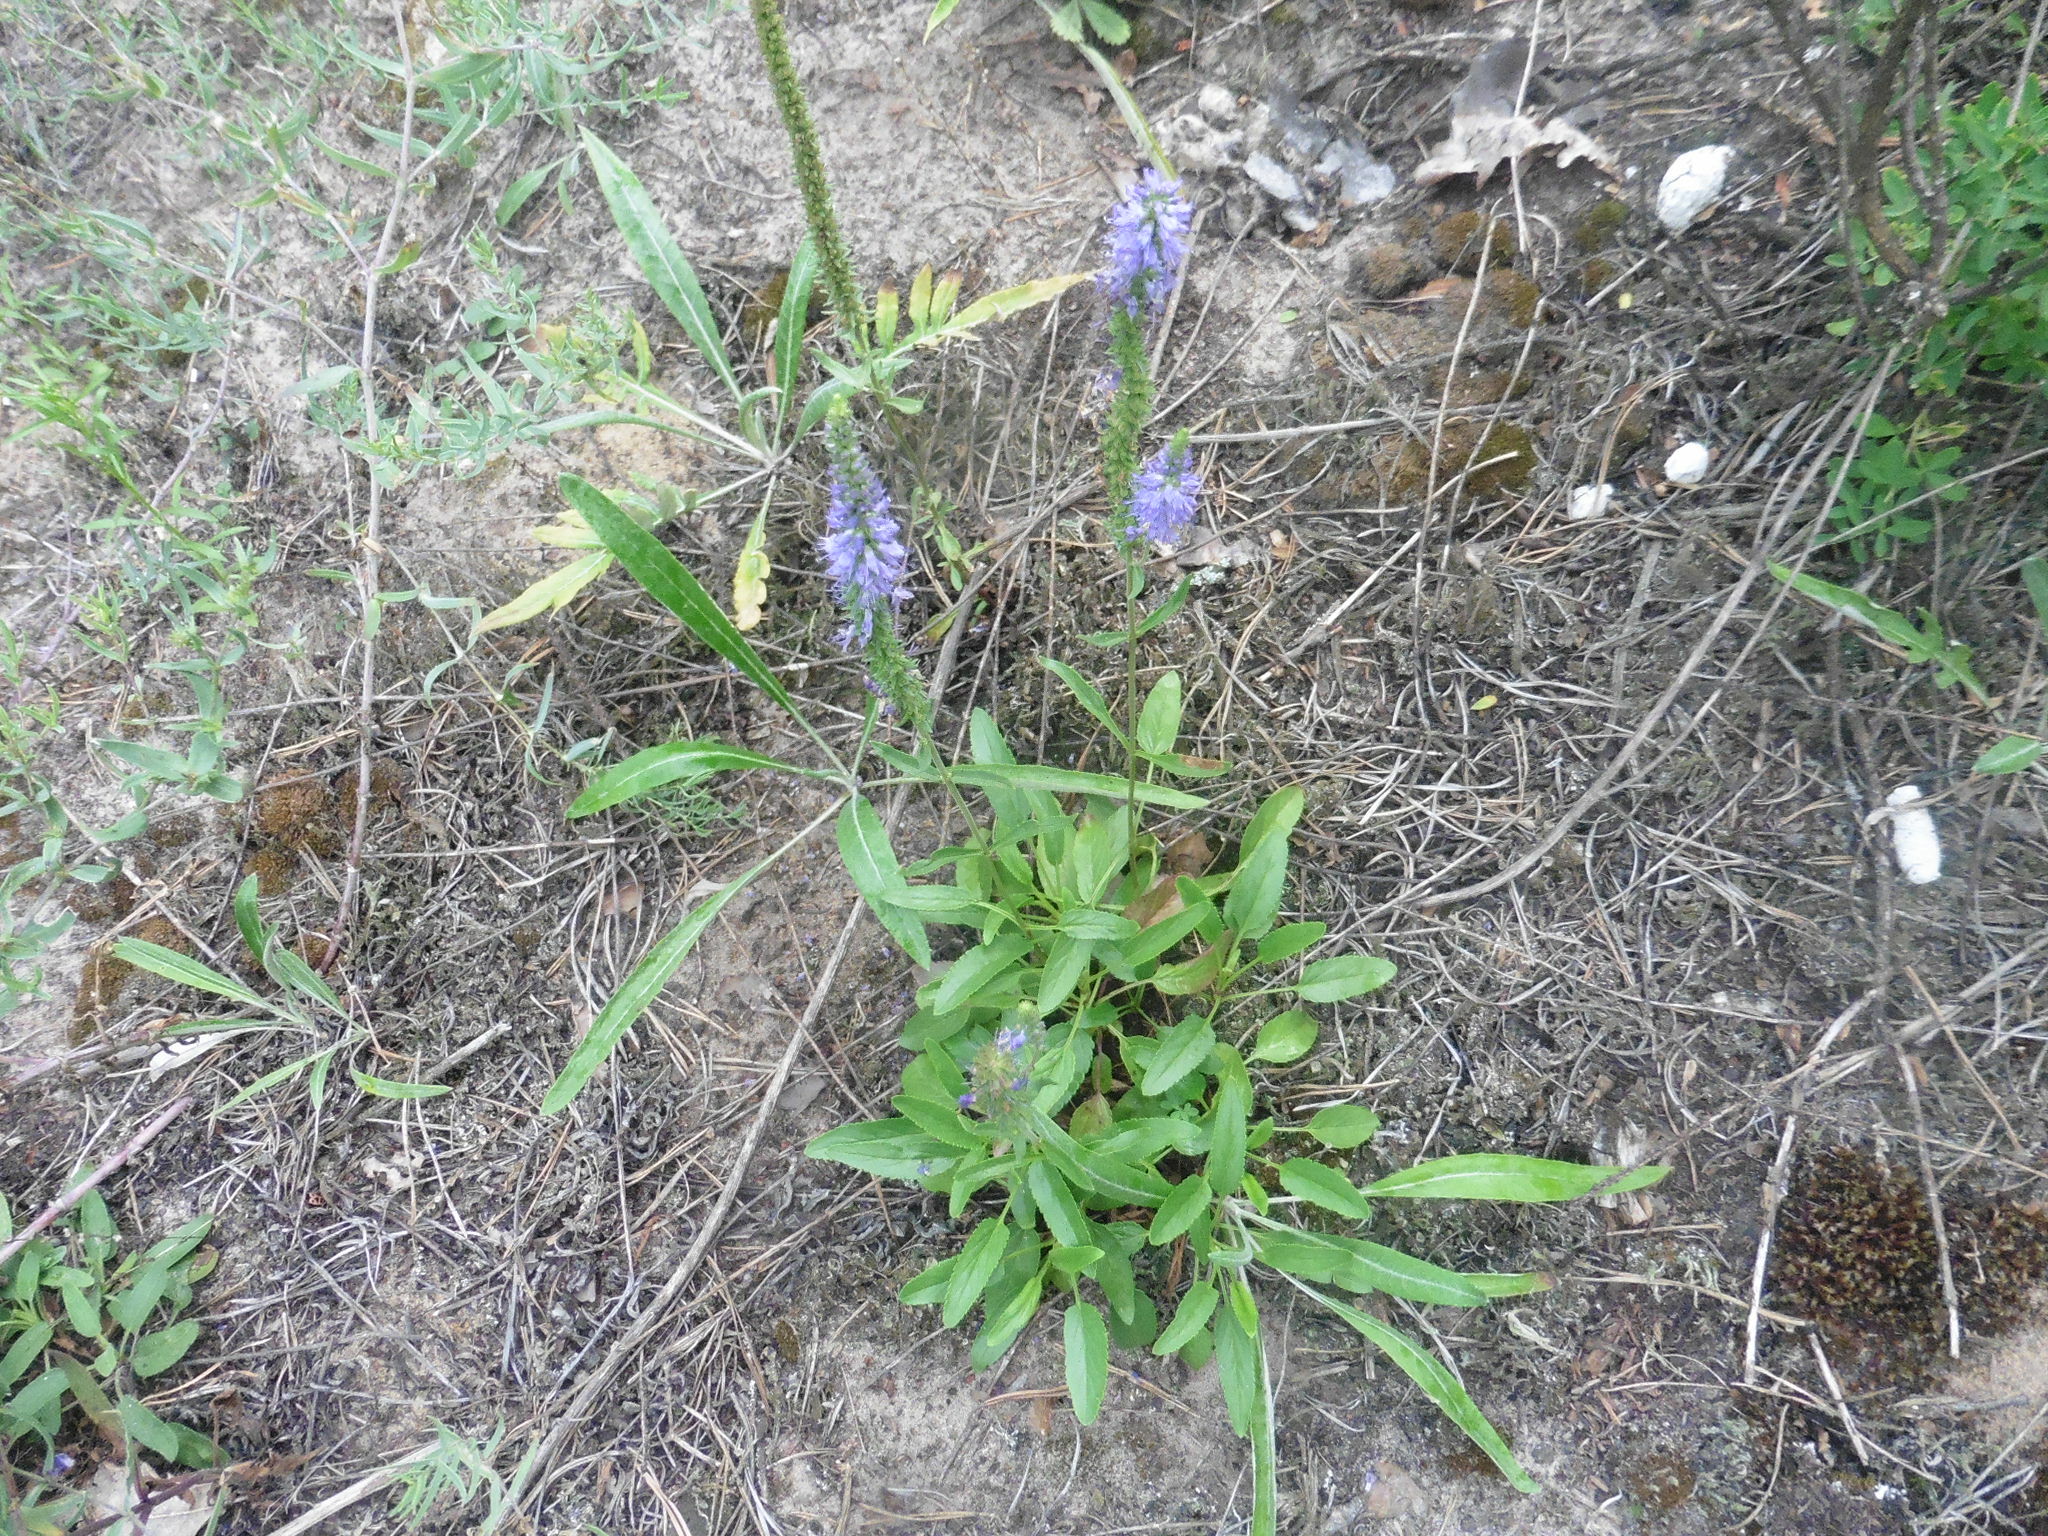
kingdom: Plantae
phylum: Tracheophyta
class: Magnoliopsida
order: Lamiales
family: Plantaginaceae
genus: Veronica
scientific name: Veronica spicata
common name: Spiked speedwell
